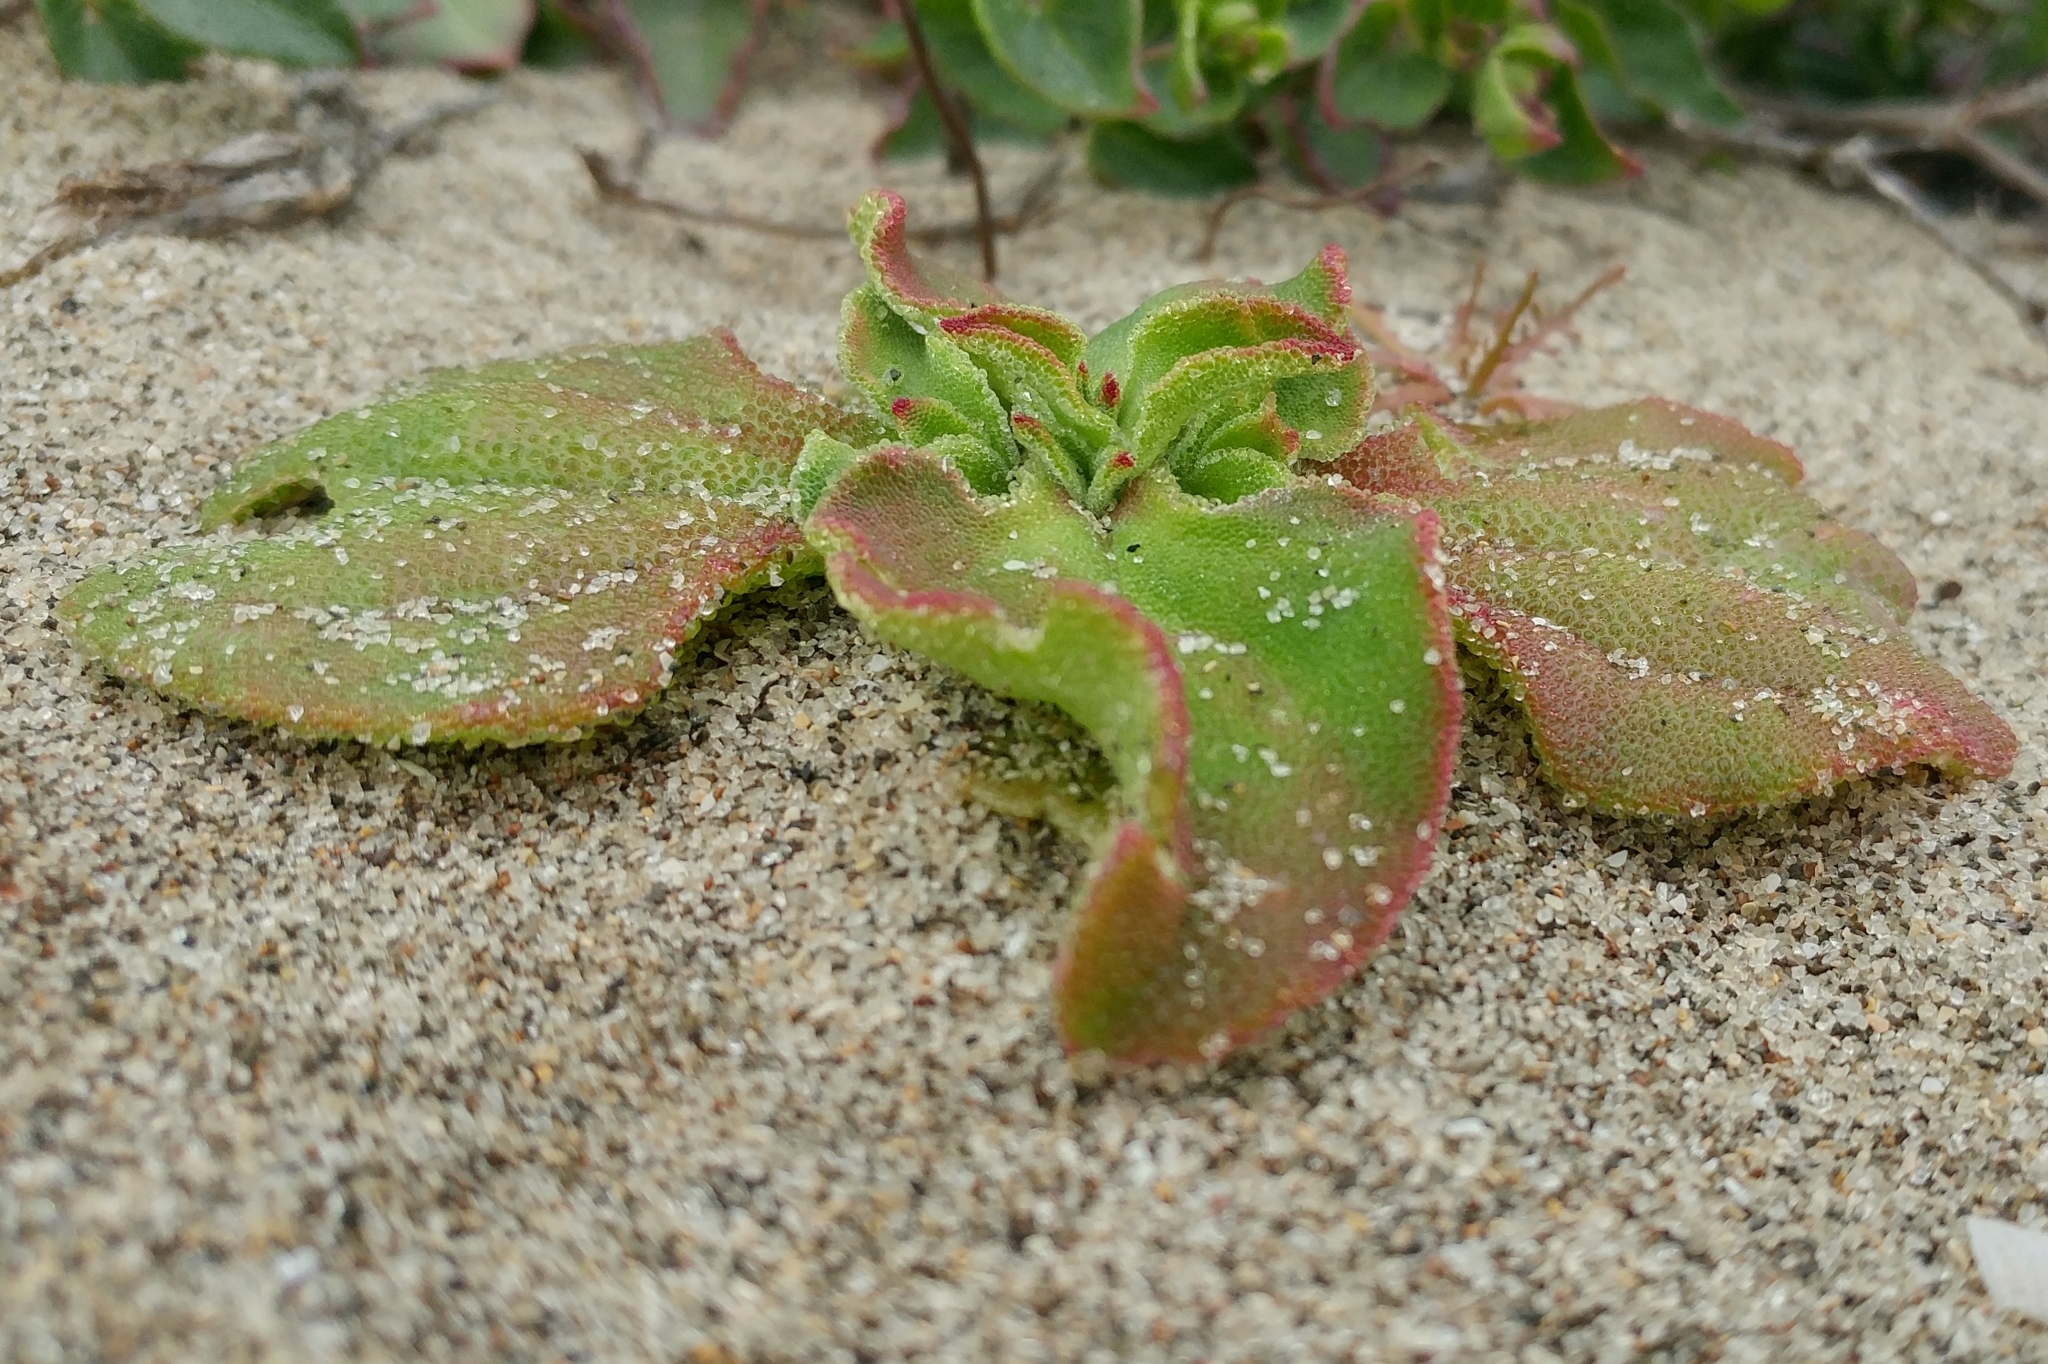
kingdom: Plantae
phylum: Tracheophyta
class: Magnoliopsida
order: Caryophyllales
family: Aizoaceae
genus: Mesembryanthemum
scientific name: Mesembryanthemum crystallinum
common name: Common iceplant
